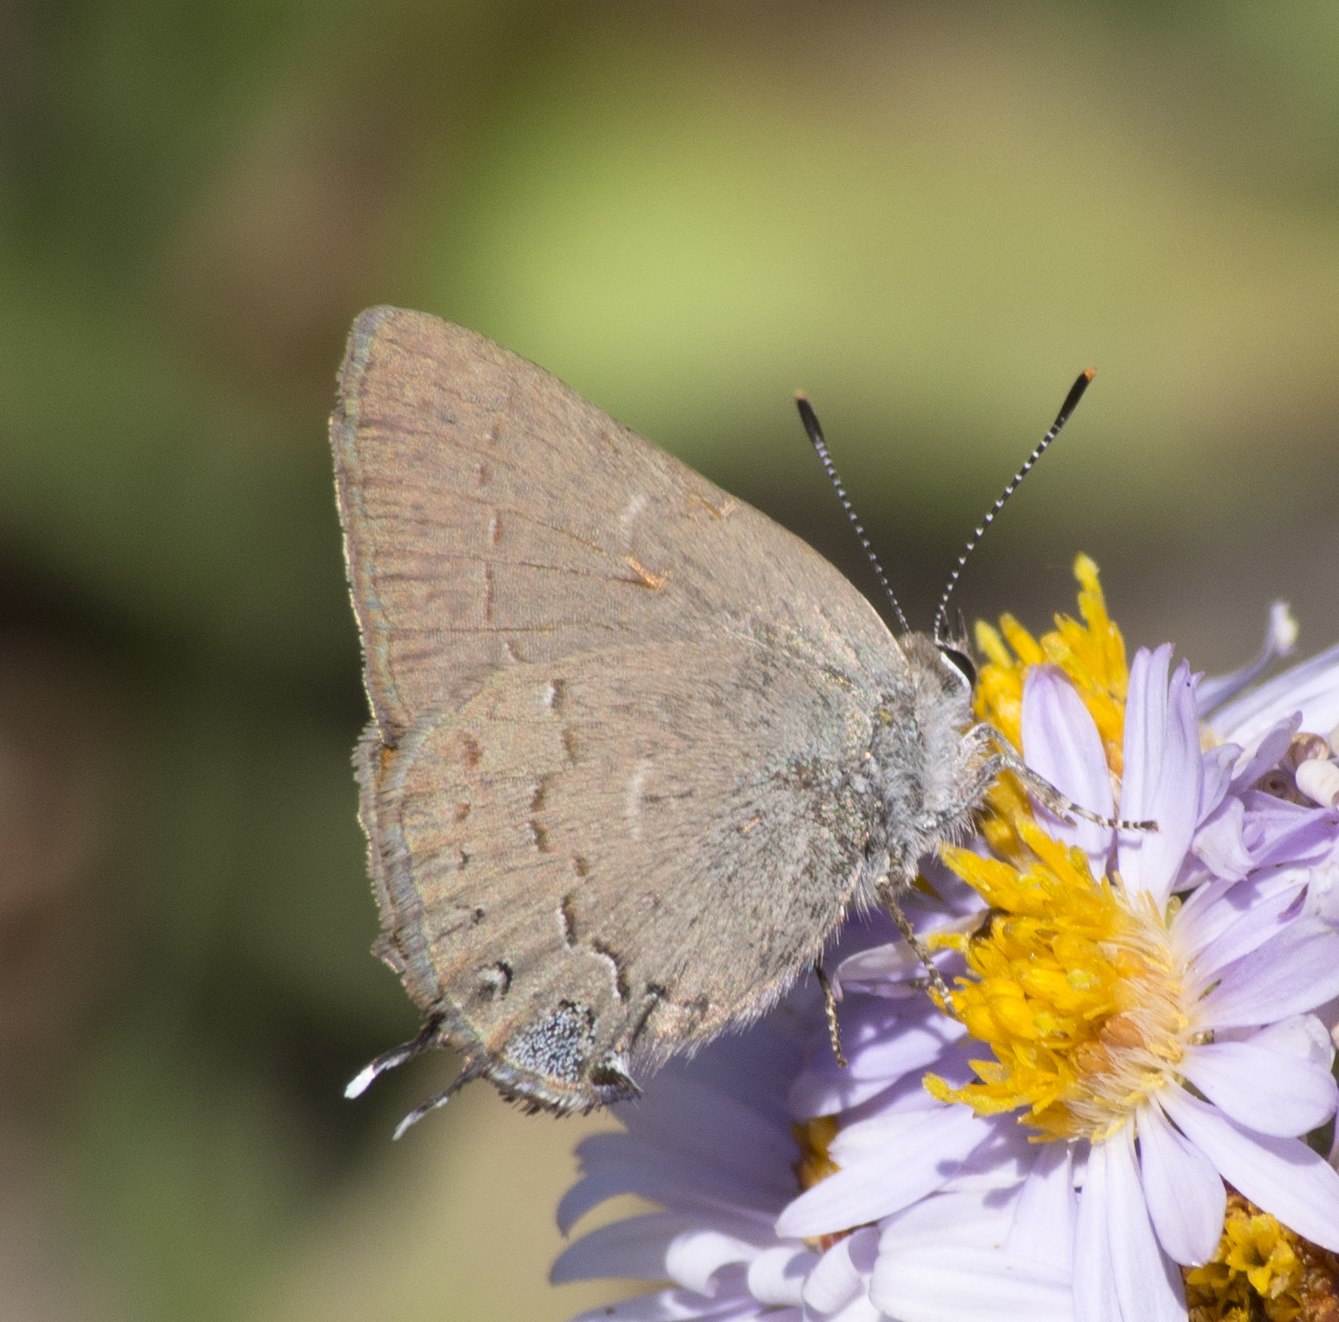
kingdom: Animalia
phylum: Arthropoda
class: Insecta
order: Lepidoptera
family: Lycaenidae
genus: Strymon
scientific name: Strymon saepium
